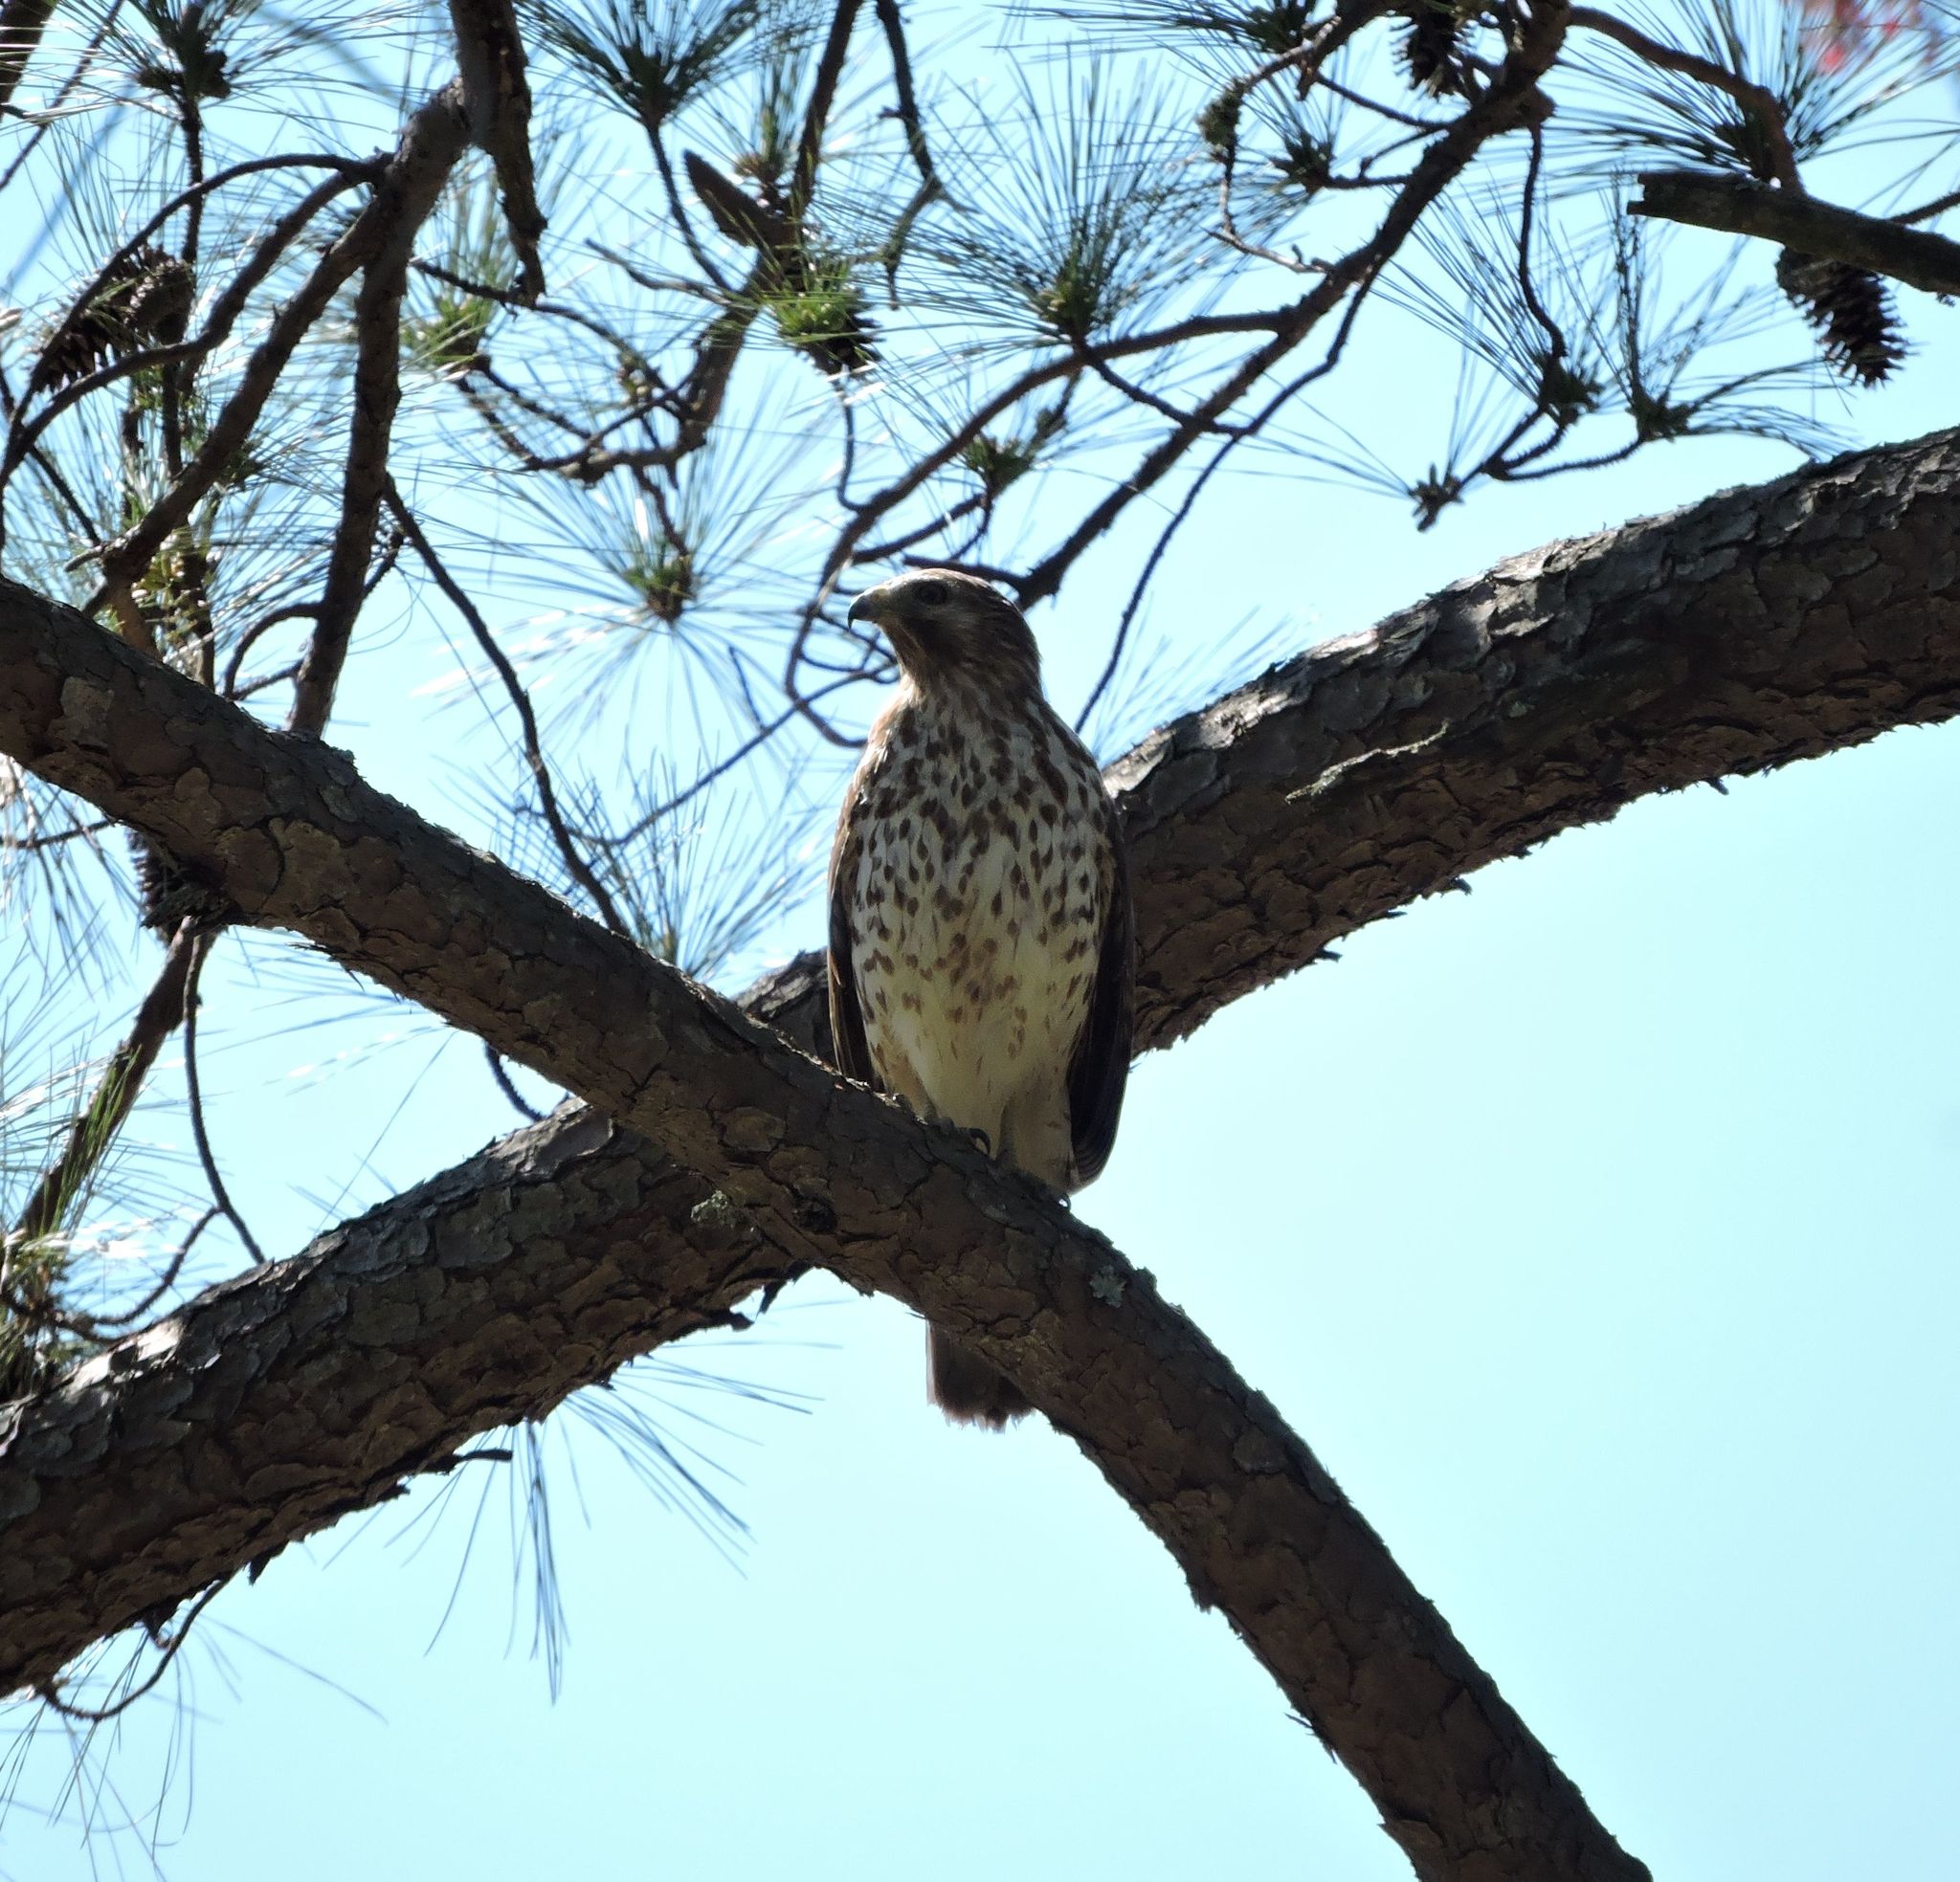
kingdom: Animalia
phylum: Chordata
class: Aves
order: Accipitriformes
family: Accipitridae
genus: Buteo
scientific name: Buteo lineatus
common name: Red-shouldered hawk
